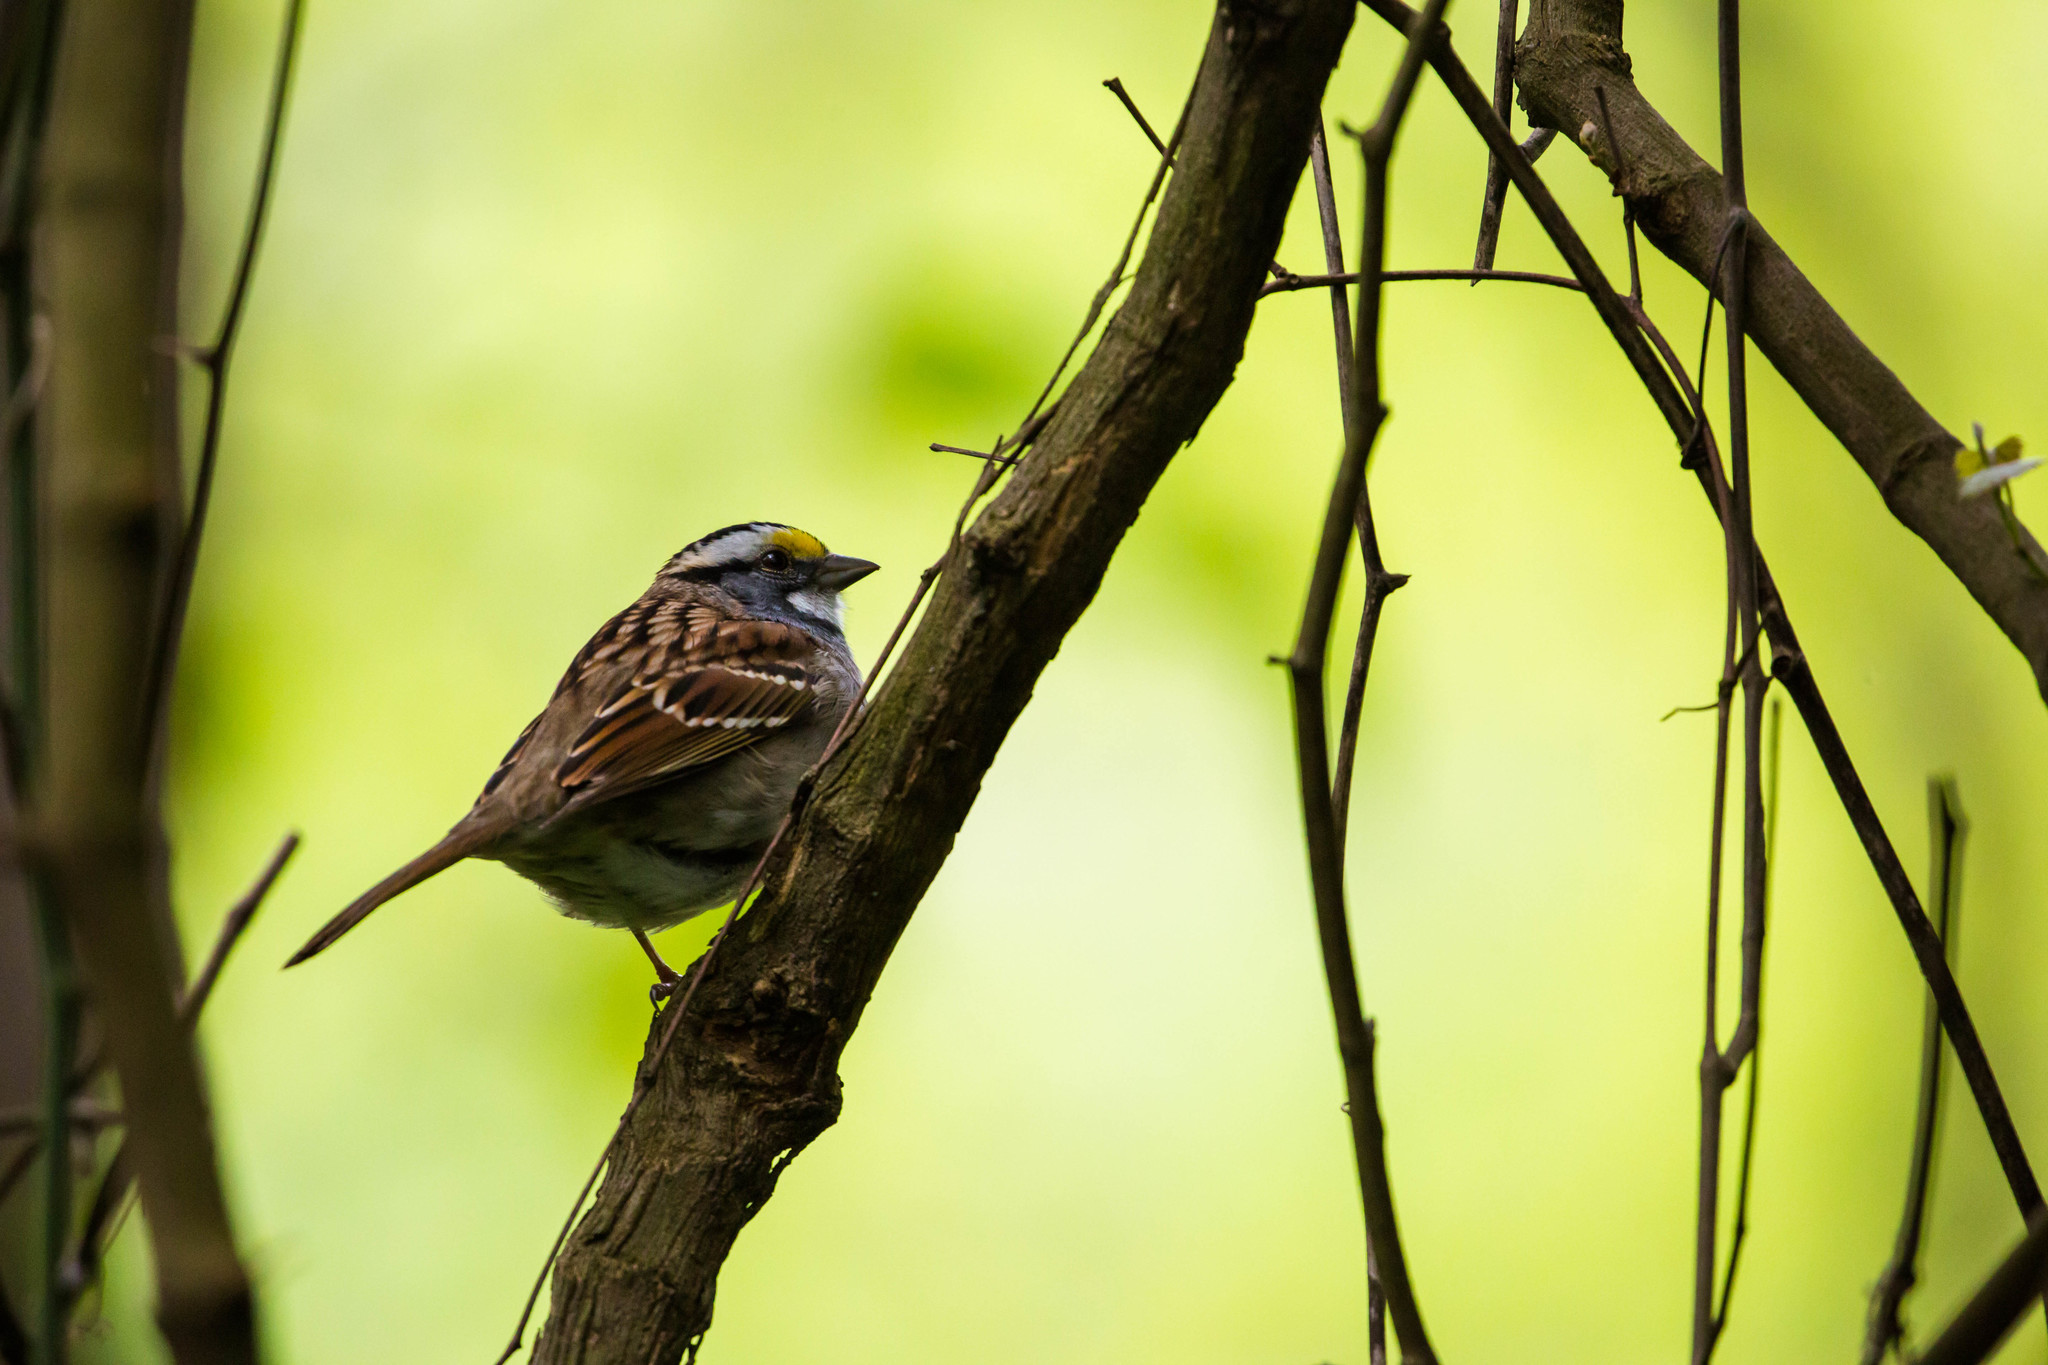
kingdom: Animalia
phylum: Chordata
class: Aves
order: Passeriformes
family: Passerellidae
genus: Zonotrichia
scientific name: Zonotrichia albicollis
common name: White-throated sparrow
